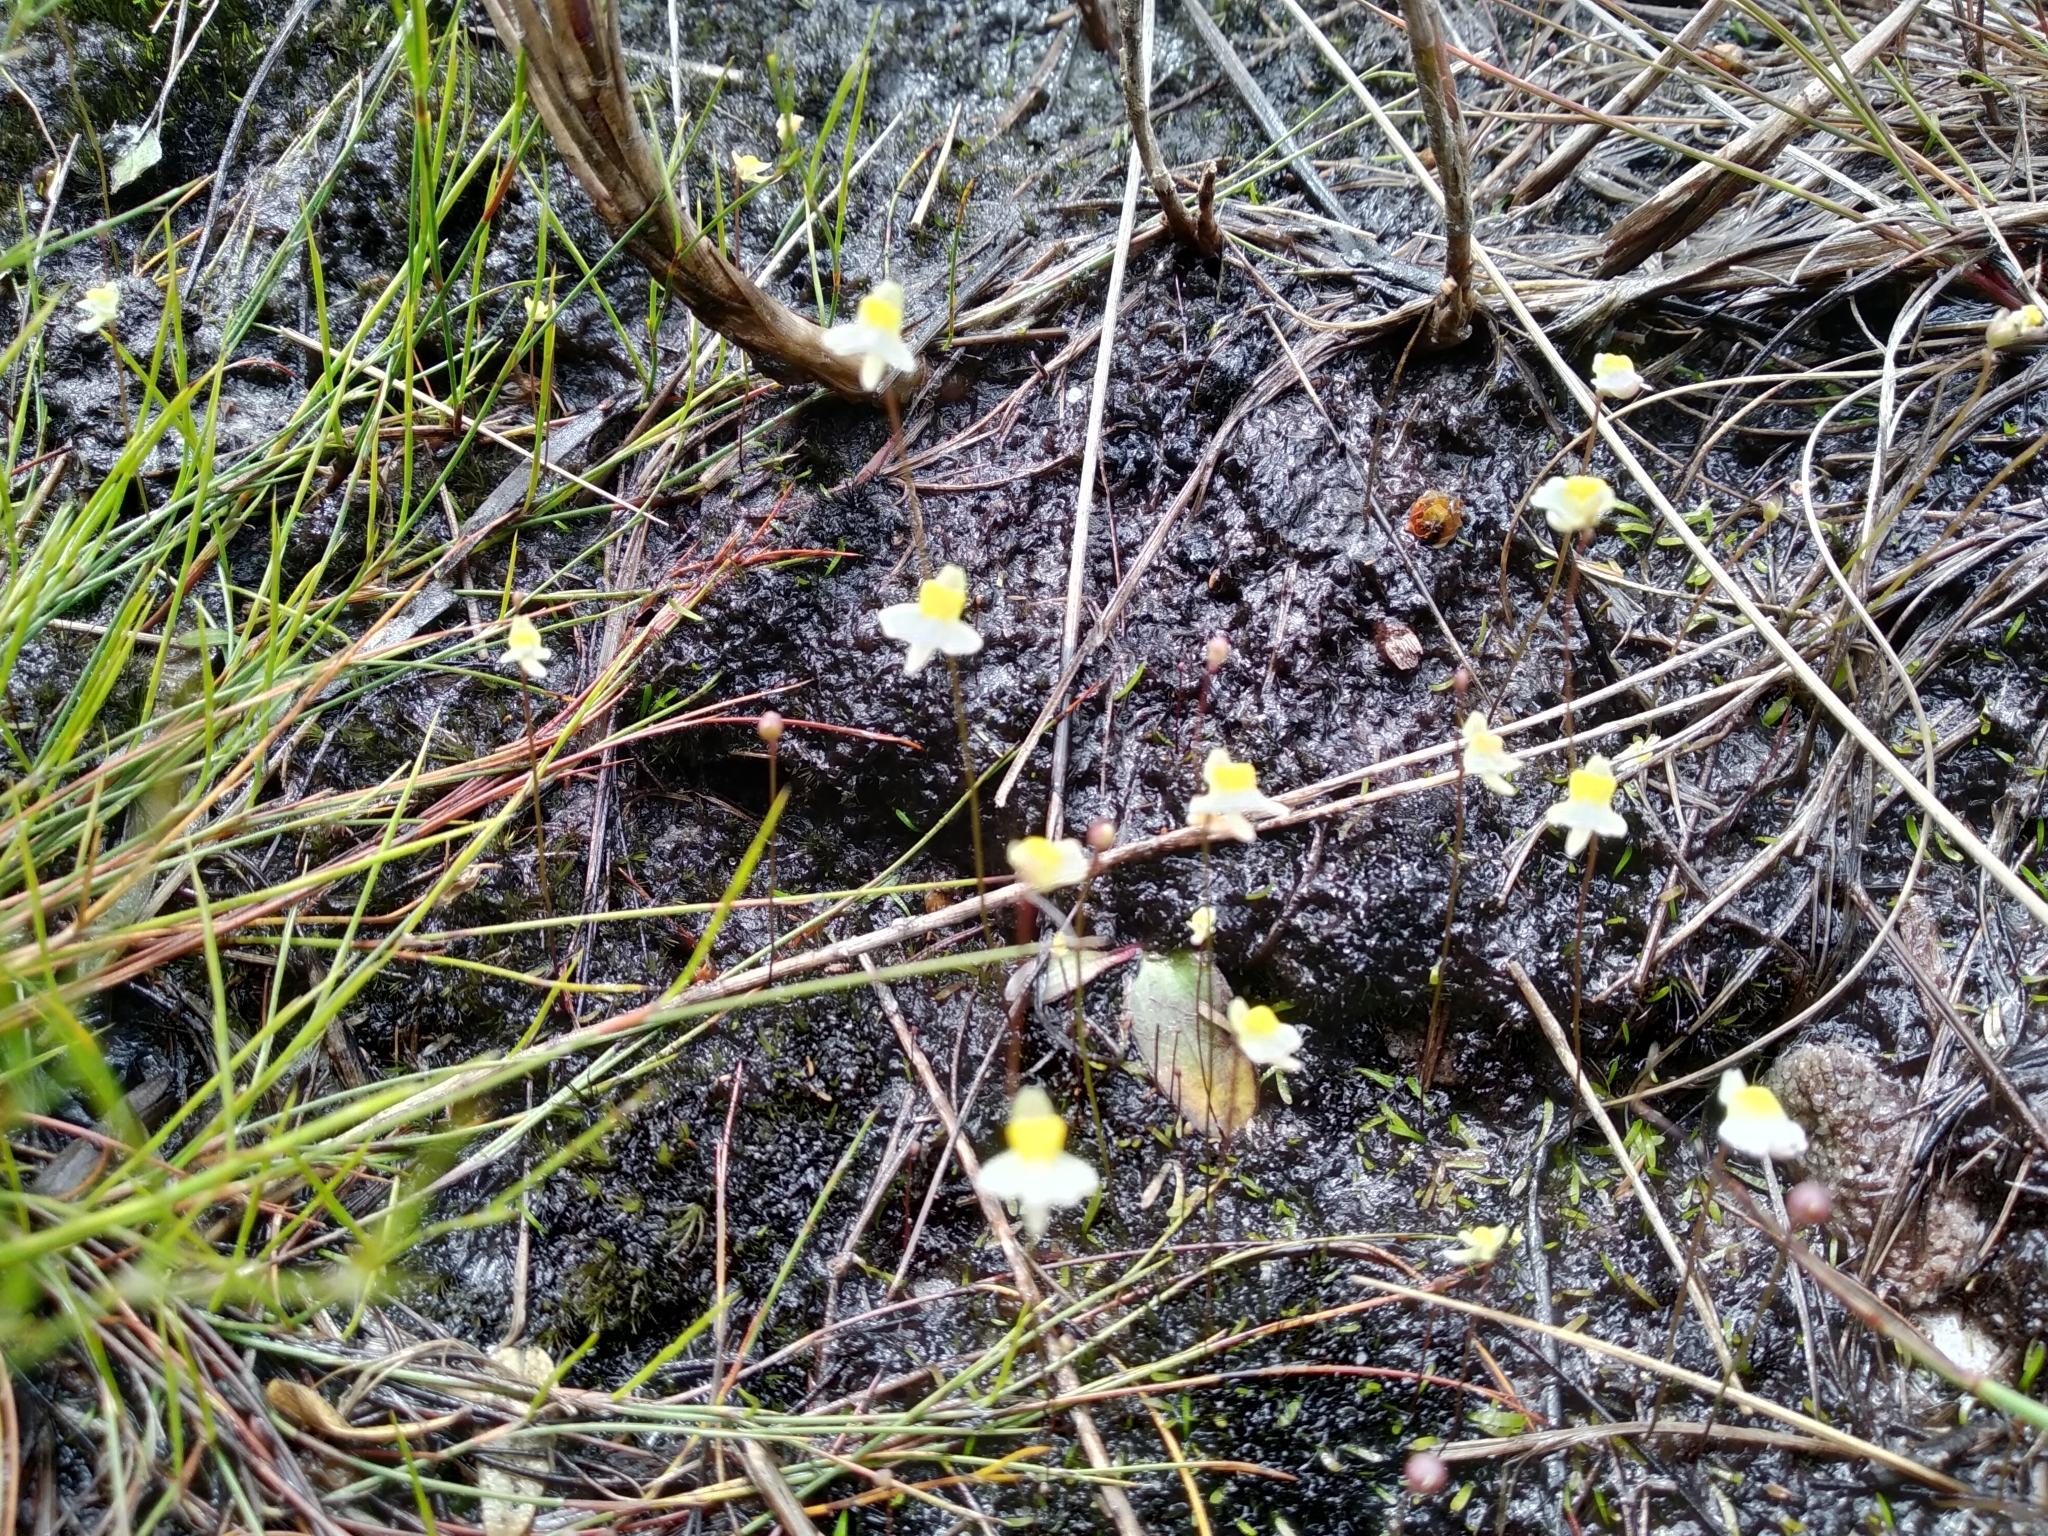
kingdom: Plantae
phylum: Tracheophyta
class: Magnoliopsida
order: Lamiales
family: Lentibulariaceae
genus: Utricularia
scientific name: Utricularia bisquamata
